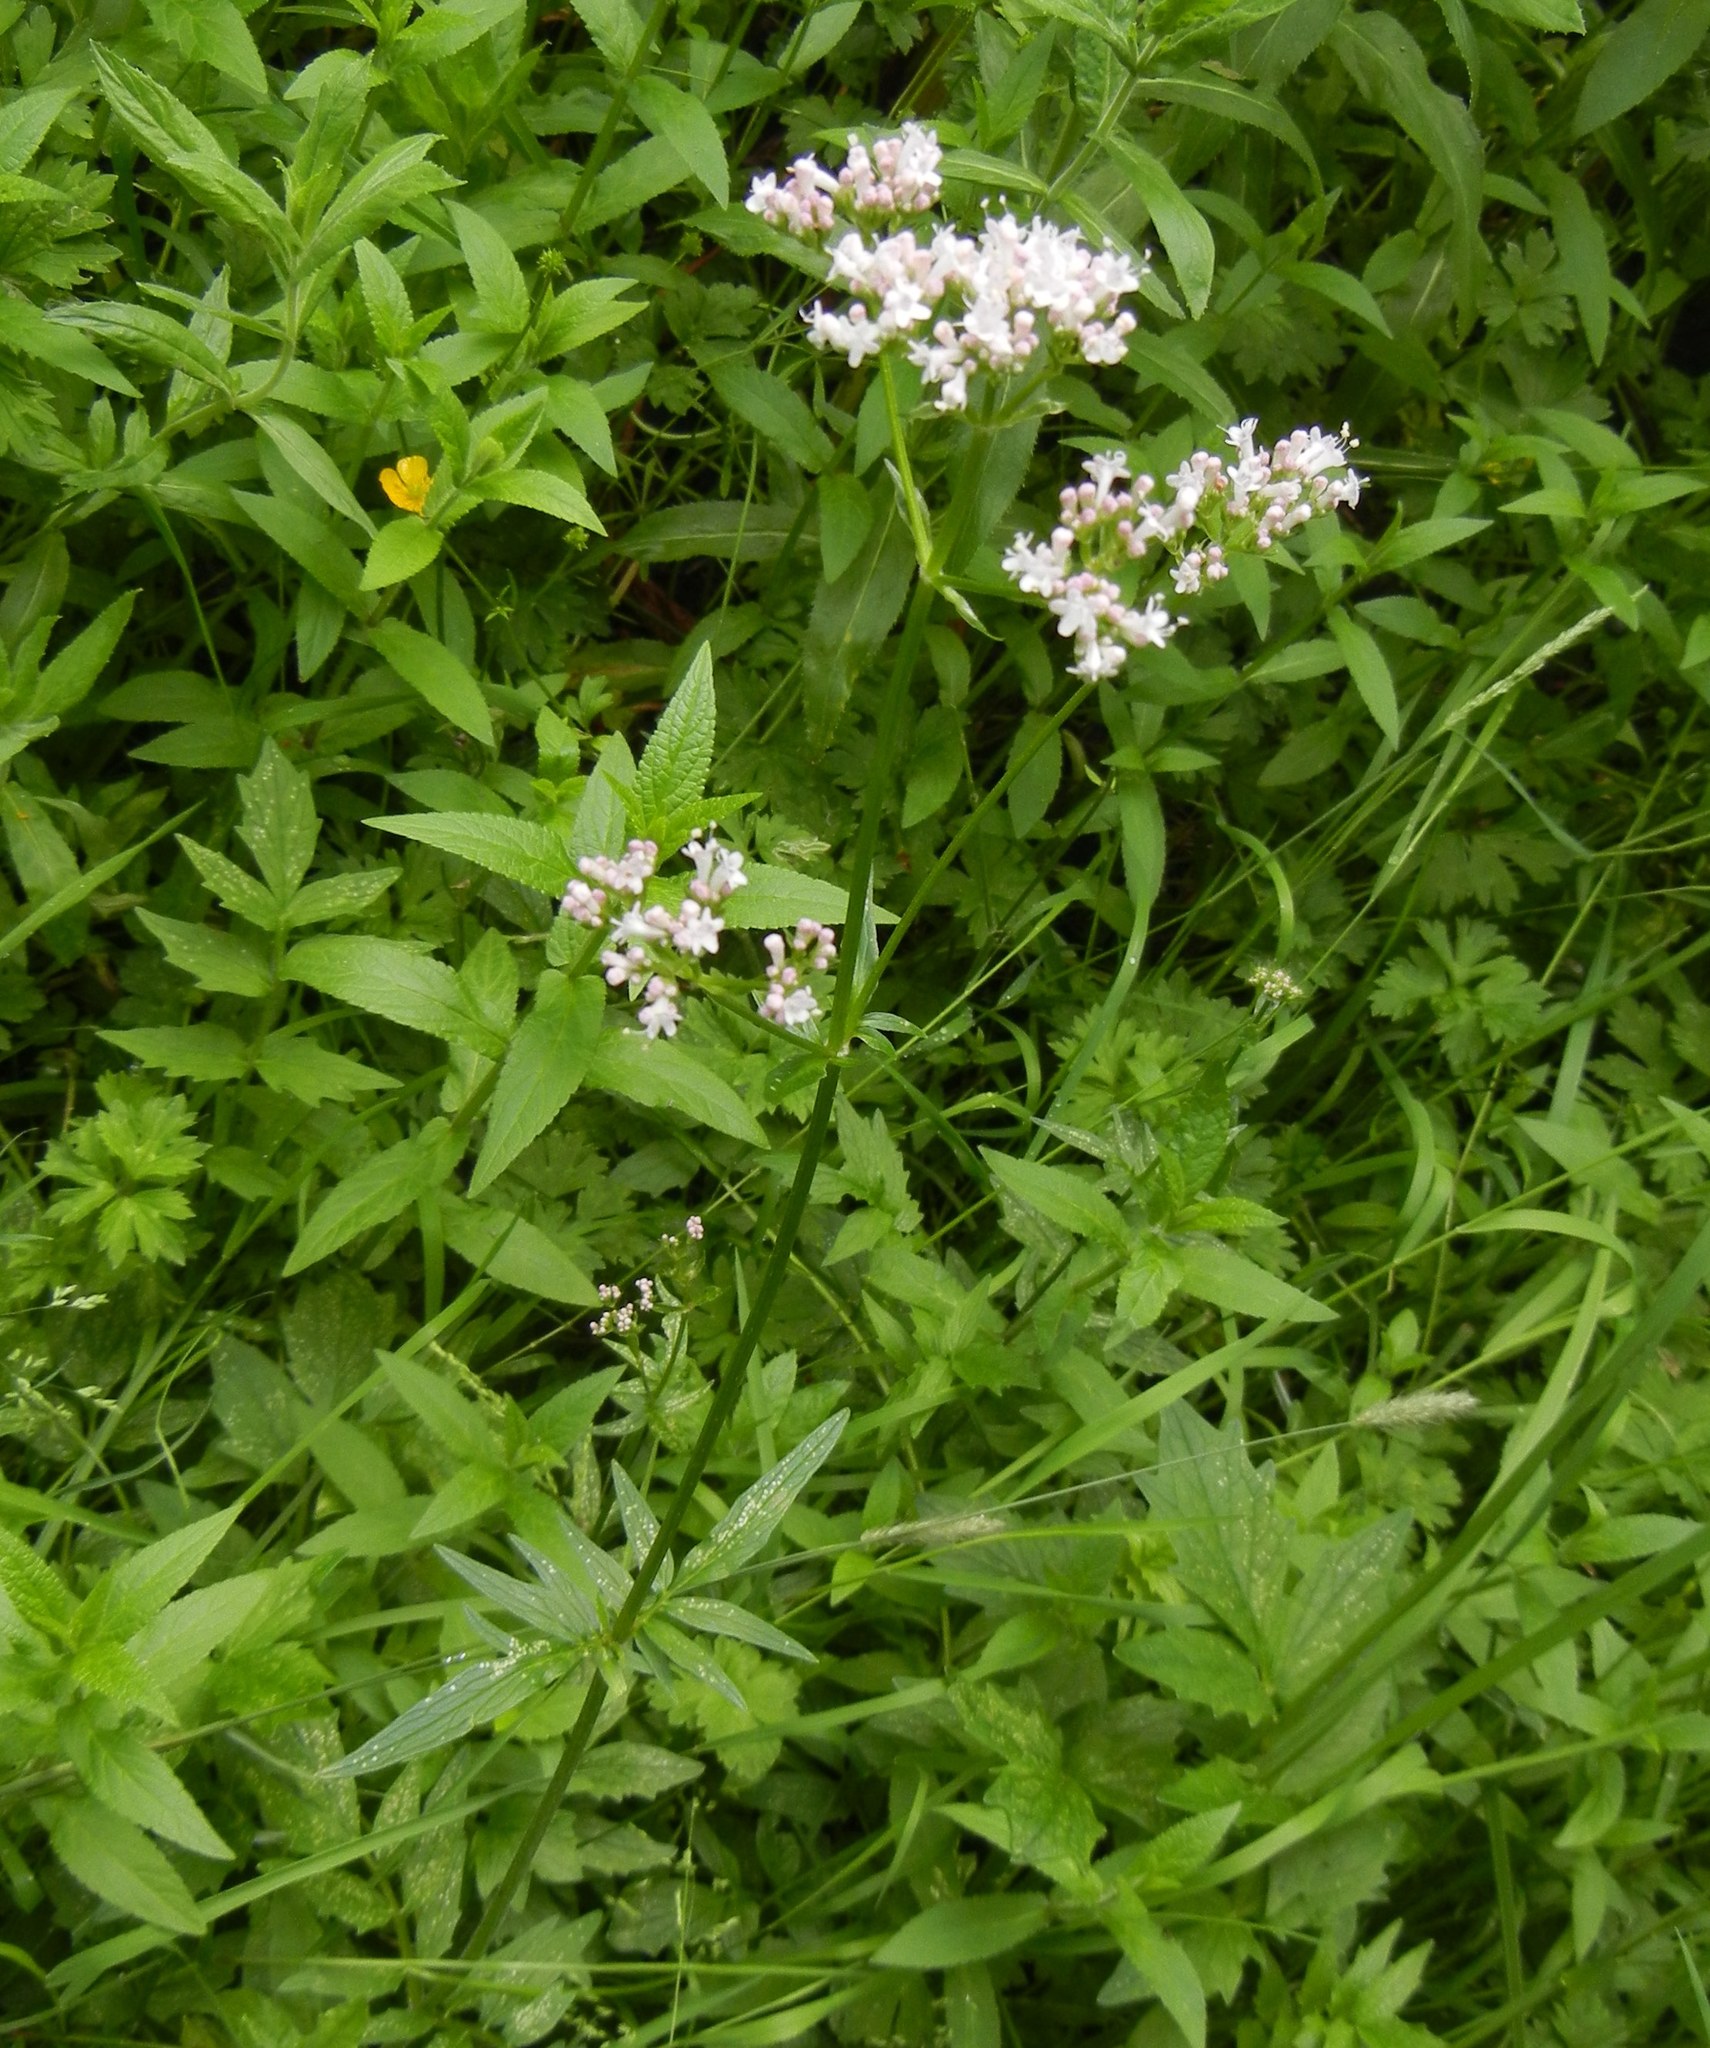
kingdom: Plantae
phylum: Tracheophyta
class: Magnoliopsida
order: Dipsacales
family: Caprifoliaceae
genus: Valeriana
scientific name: Valeriana officinalis
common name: Common valerian
